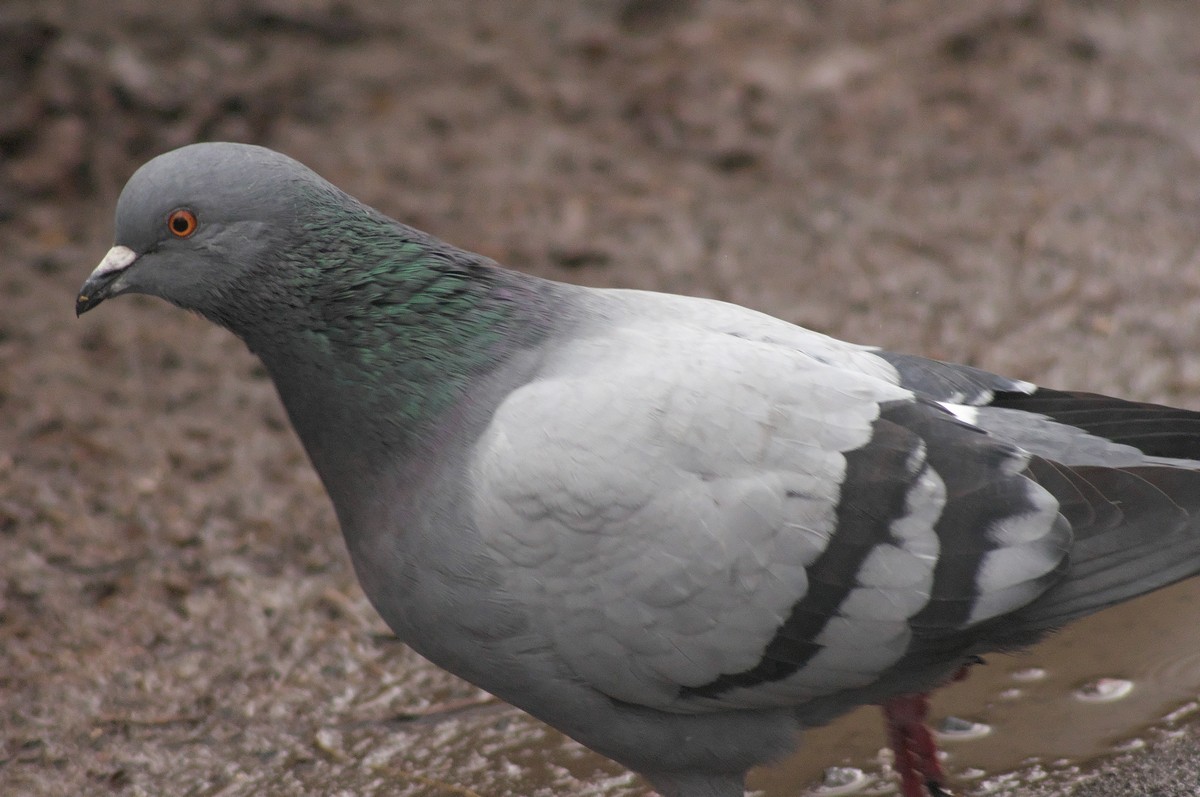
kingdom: Animalia
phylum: Chordata
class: Aves
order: Columbiformes
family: Columbidae
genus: Columba
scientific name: Columba livia
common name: Rock pigeon
